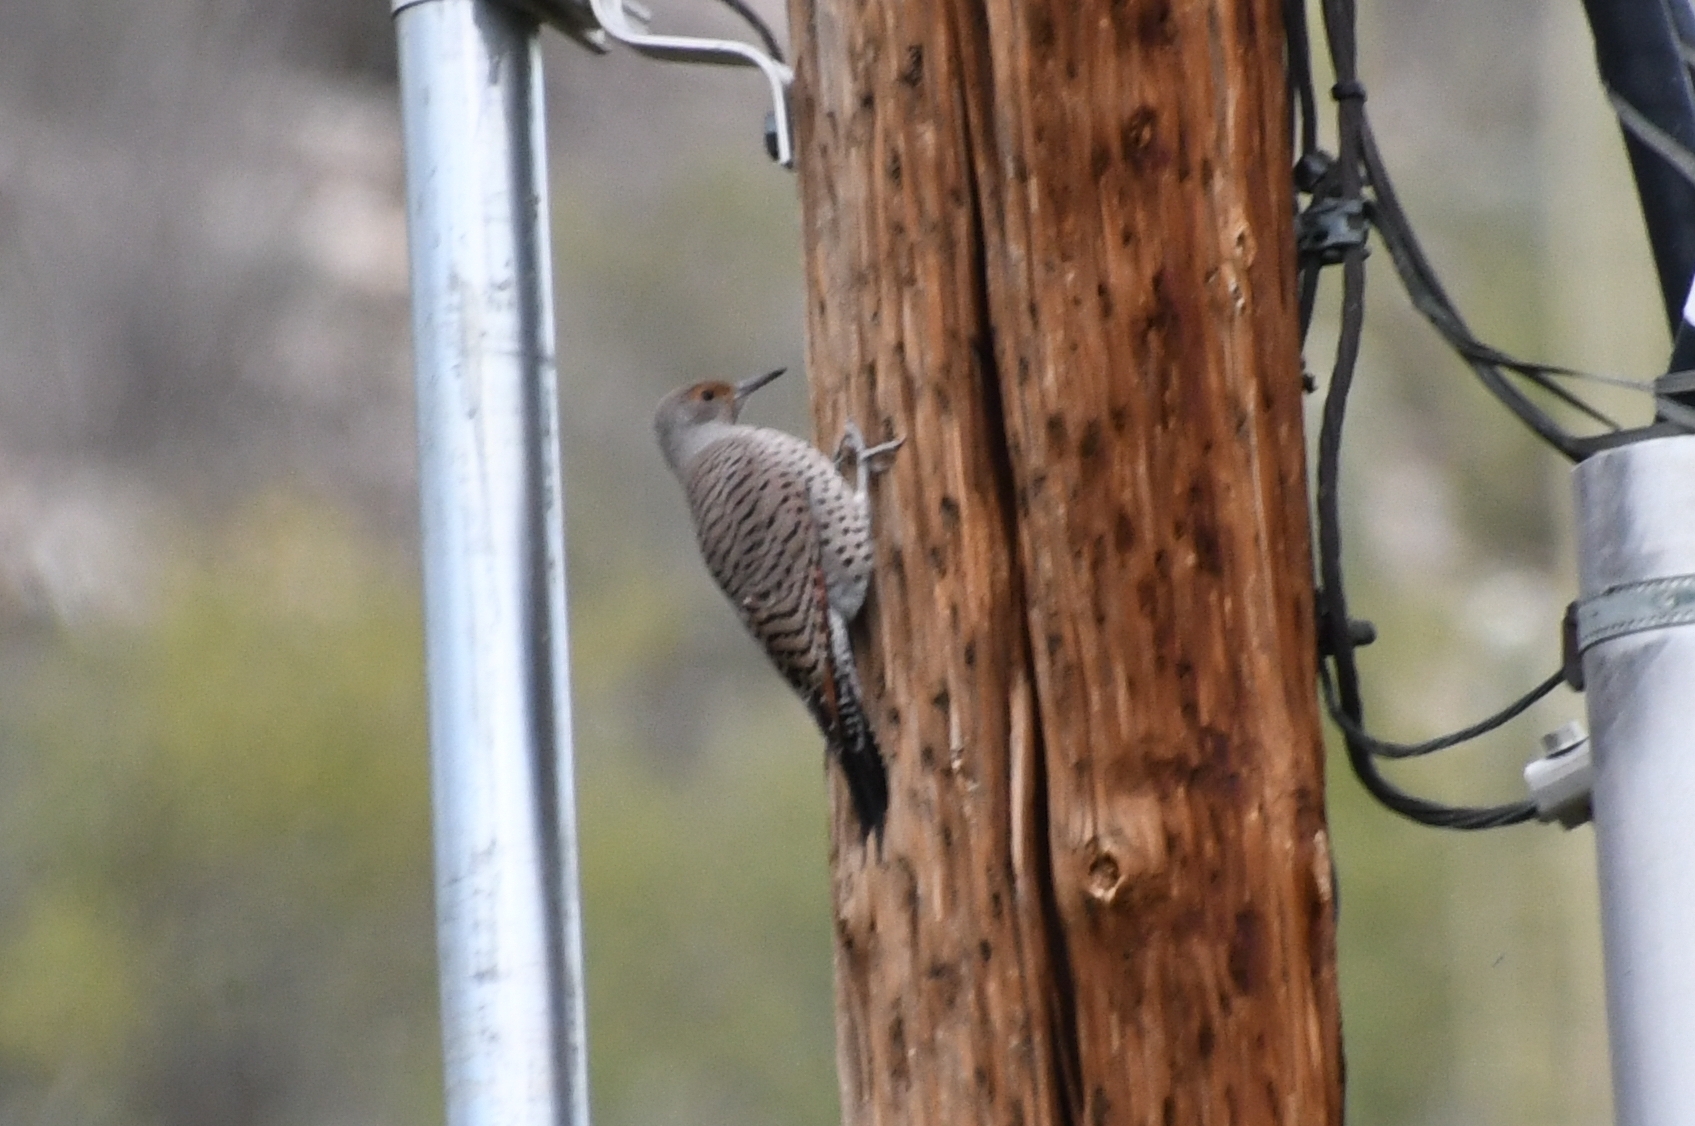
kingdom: Animalia
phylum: Chordata
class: Aves
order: Piciformes
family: Picidae
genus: Colaptes
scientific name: Colaptes auratus
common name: Northern flicker
